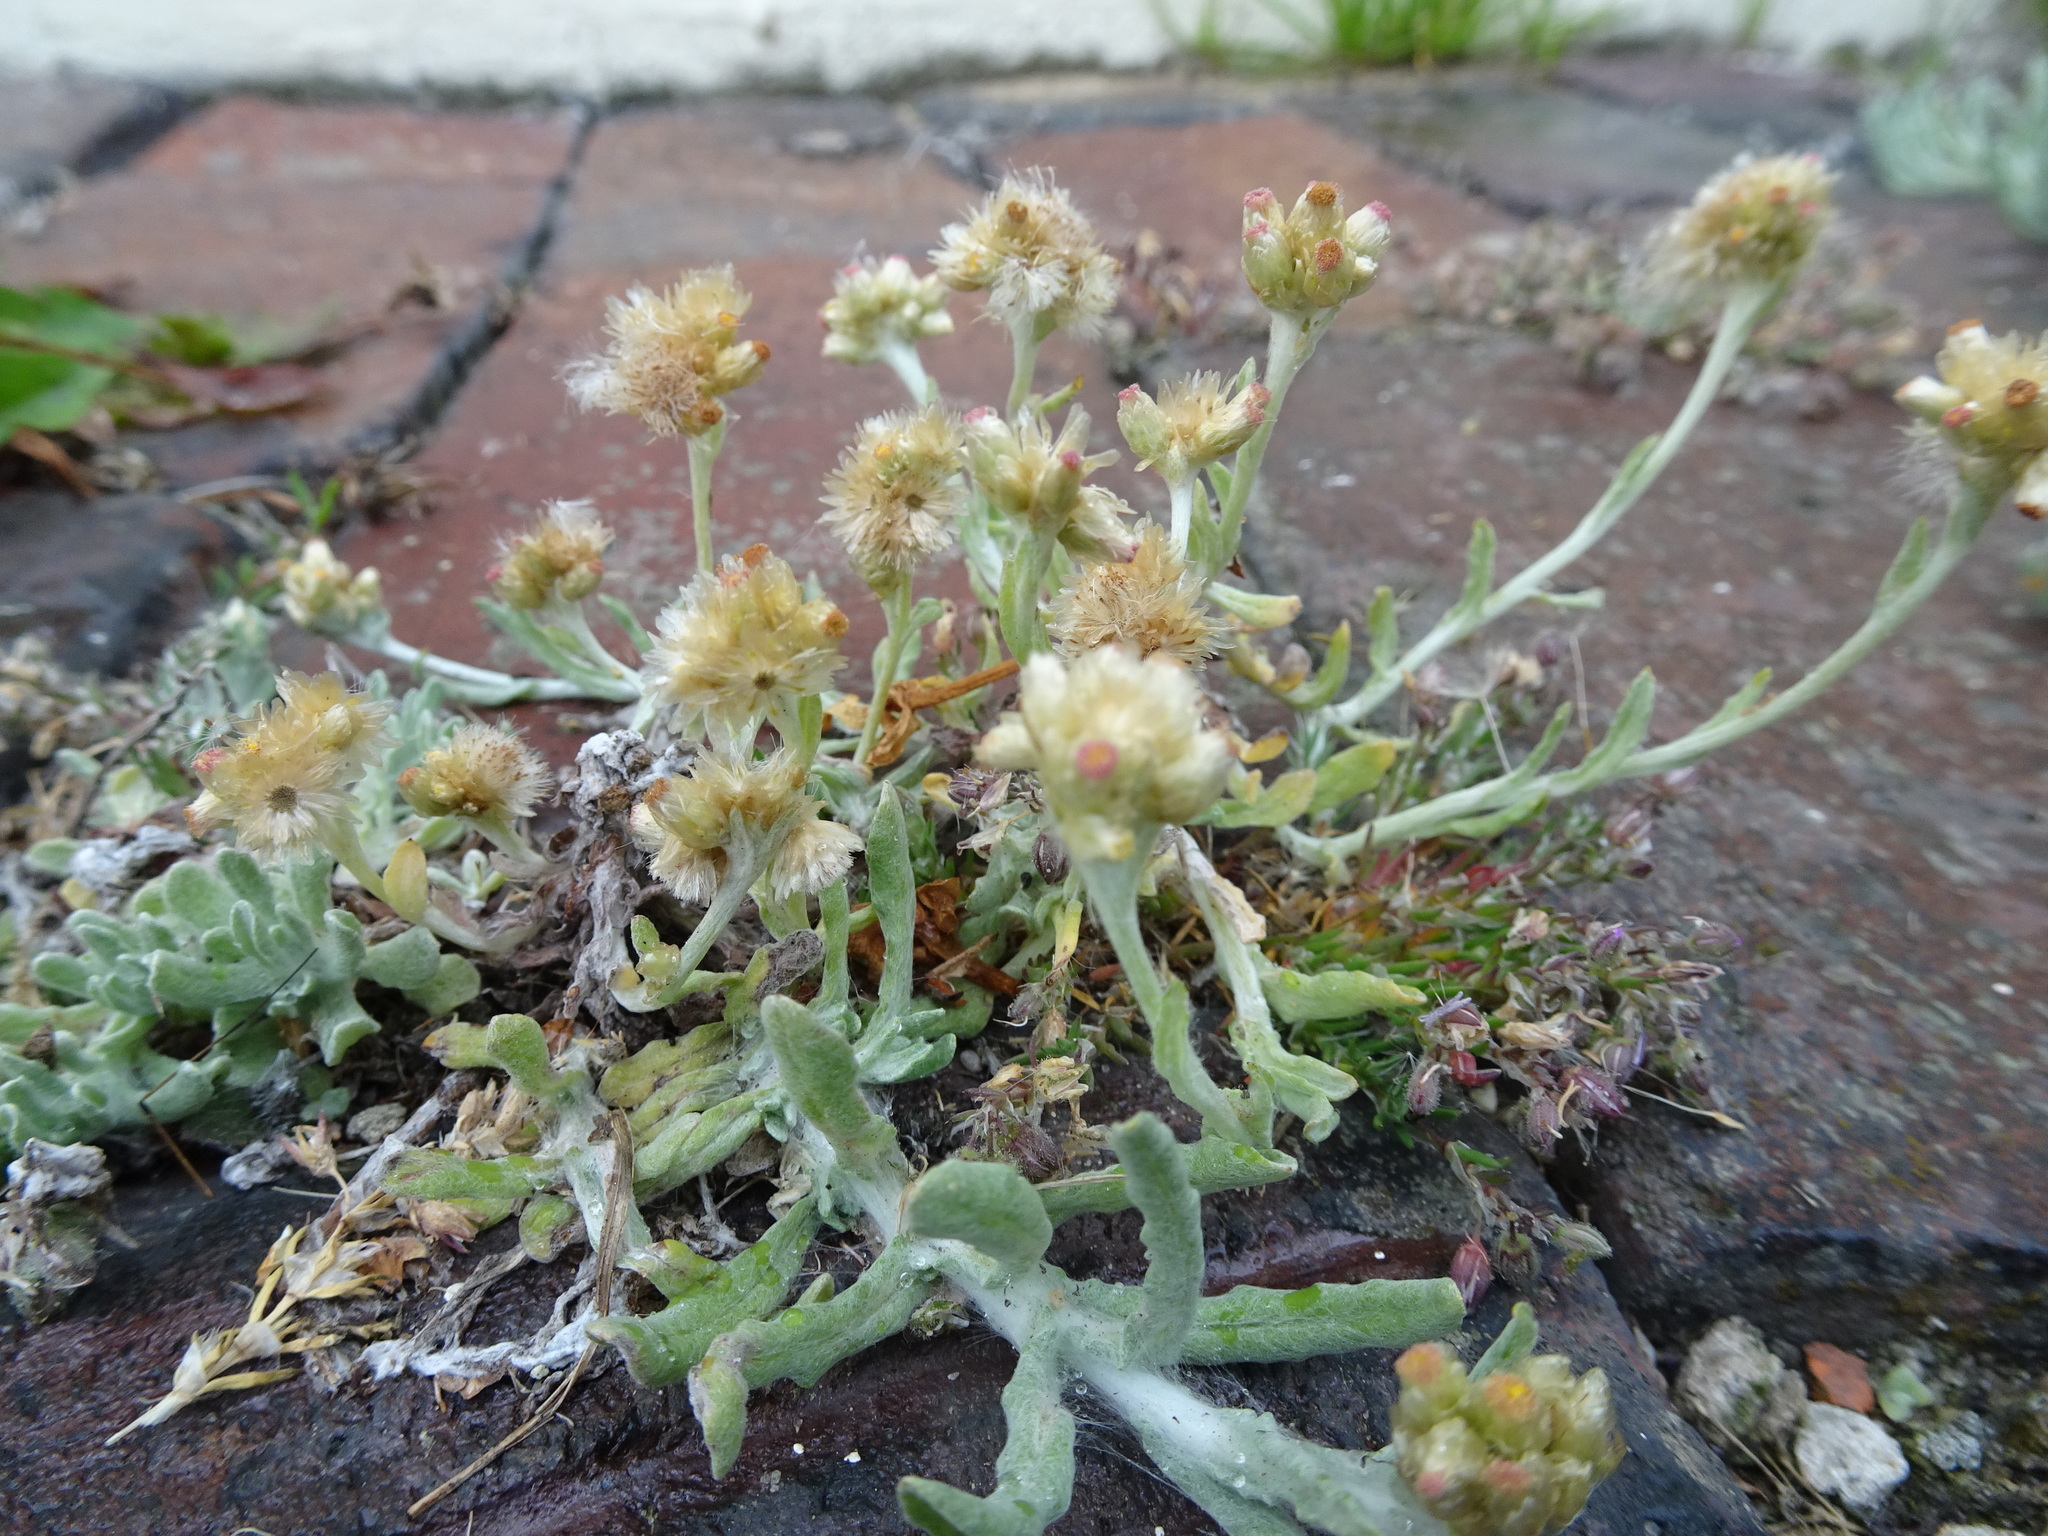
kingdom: Plantae
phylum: Tracheophyta
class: Magnoliopsida
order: Asterales
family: Asteraceae
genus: Helichrysum
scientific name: Helichrysum luteoalbum
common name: Daisy
